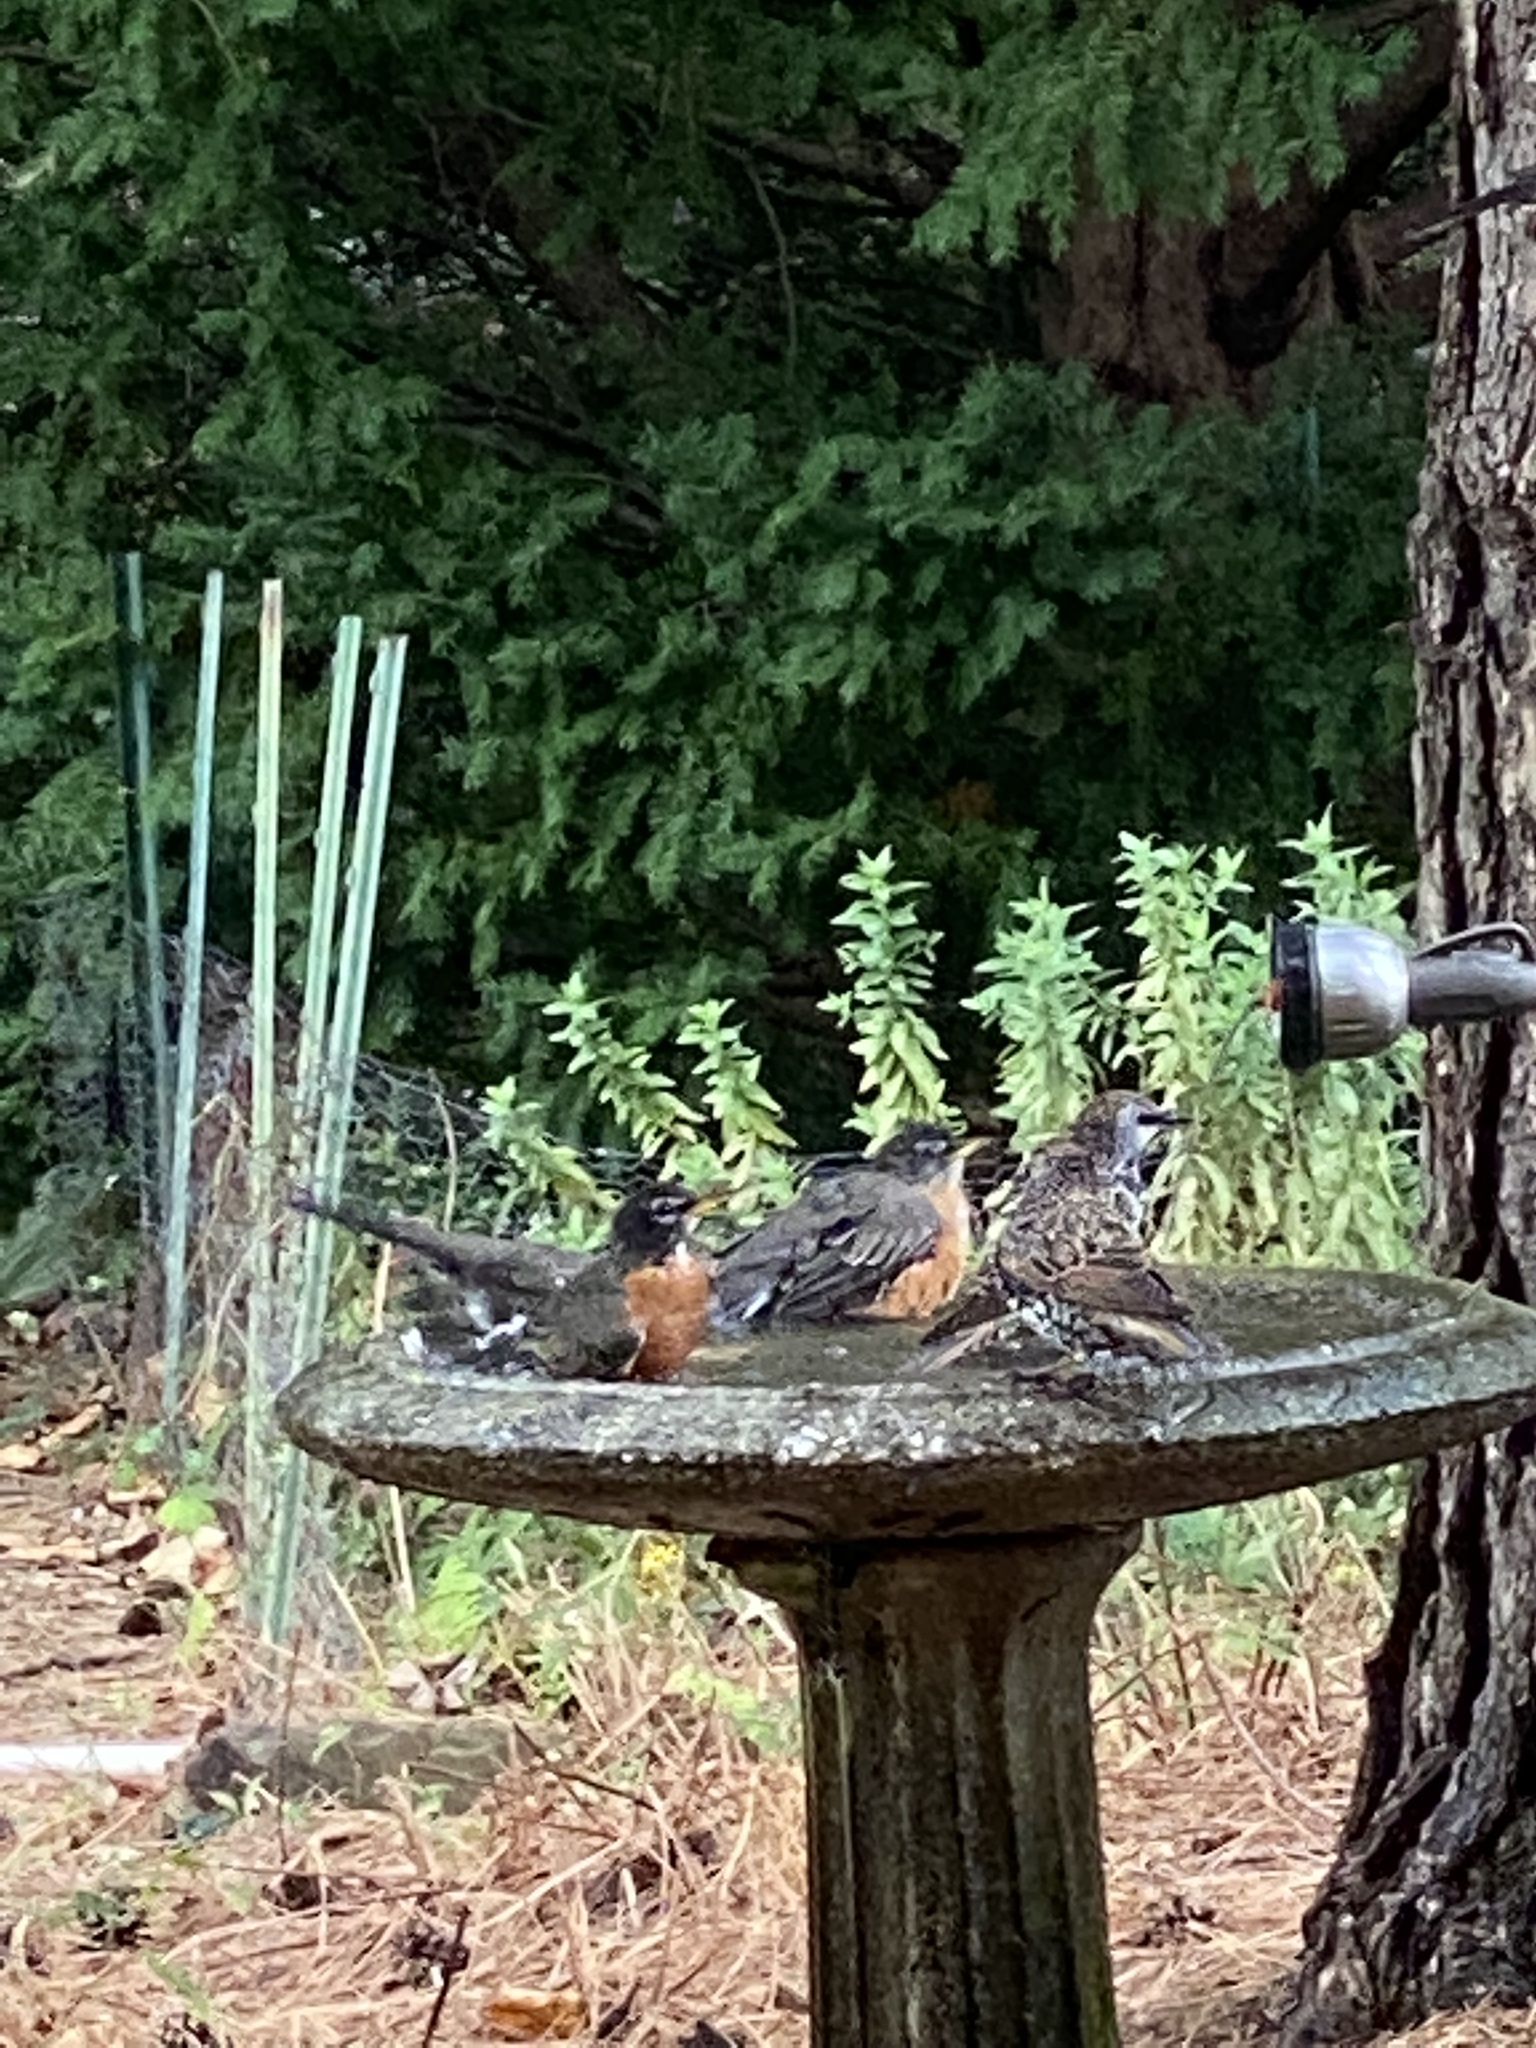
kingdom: Animalia
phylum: Chordata
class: Aves
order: Passeriformes
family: Turdidae
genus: Turdus
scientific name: Turdus migratorius
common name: American robin
